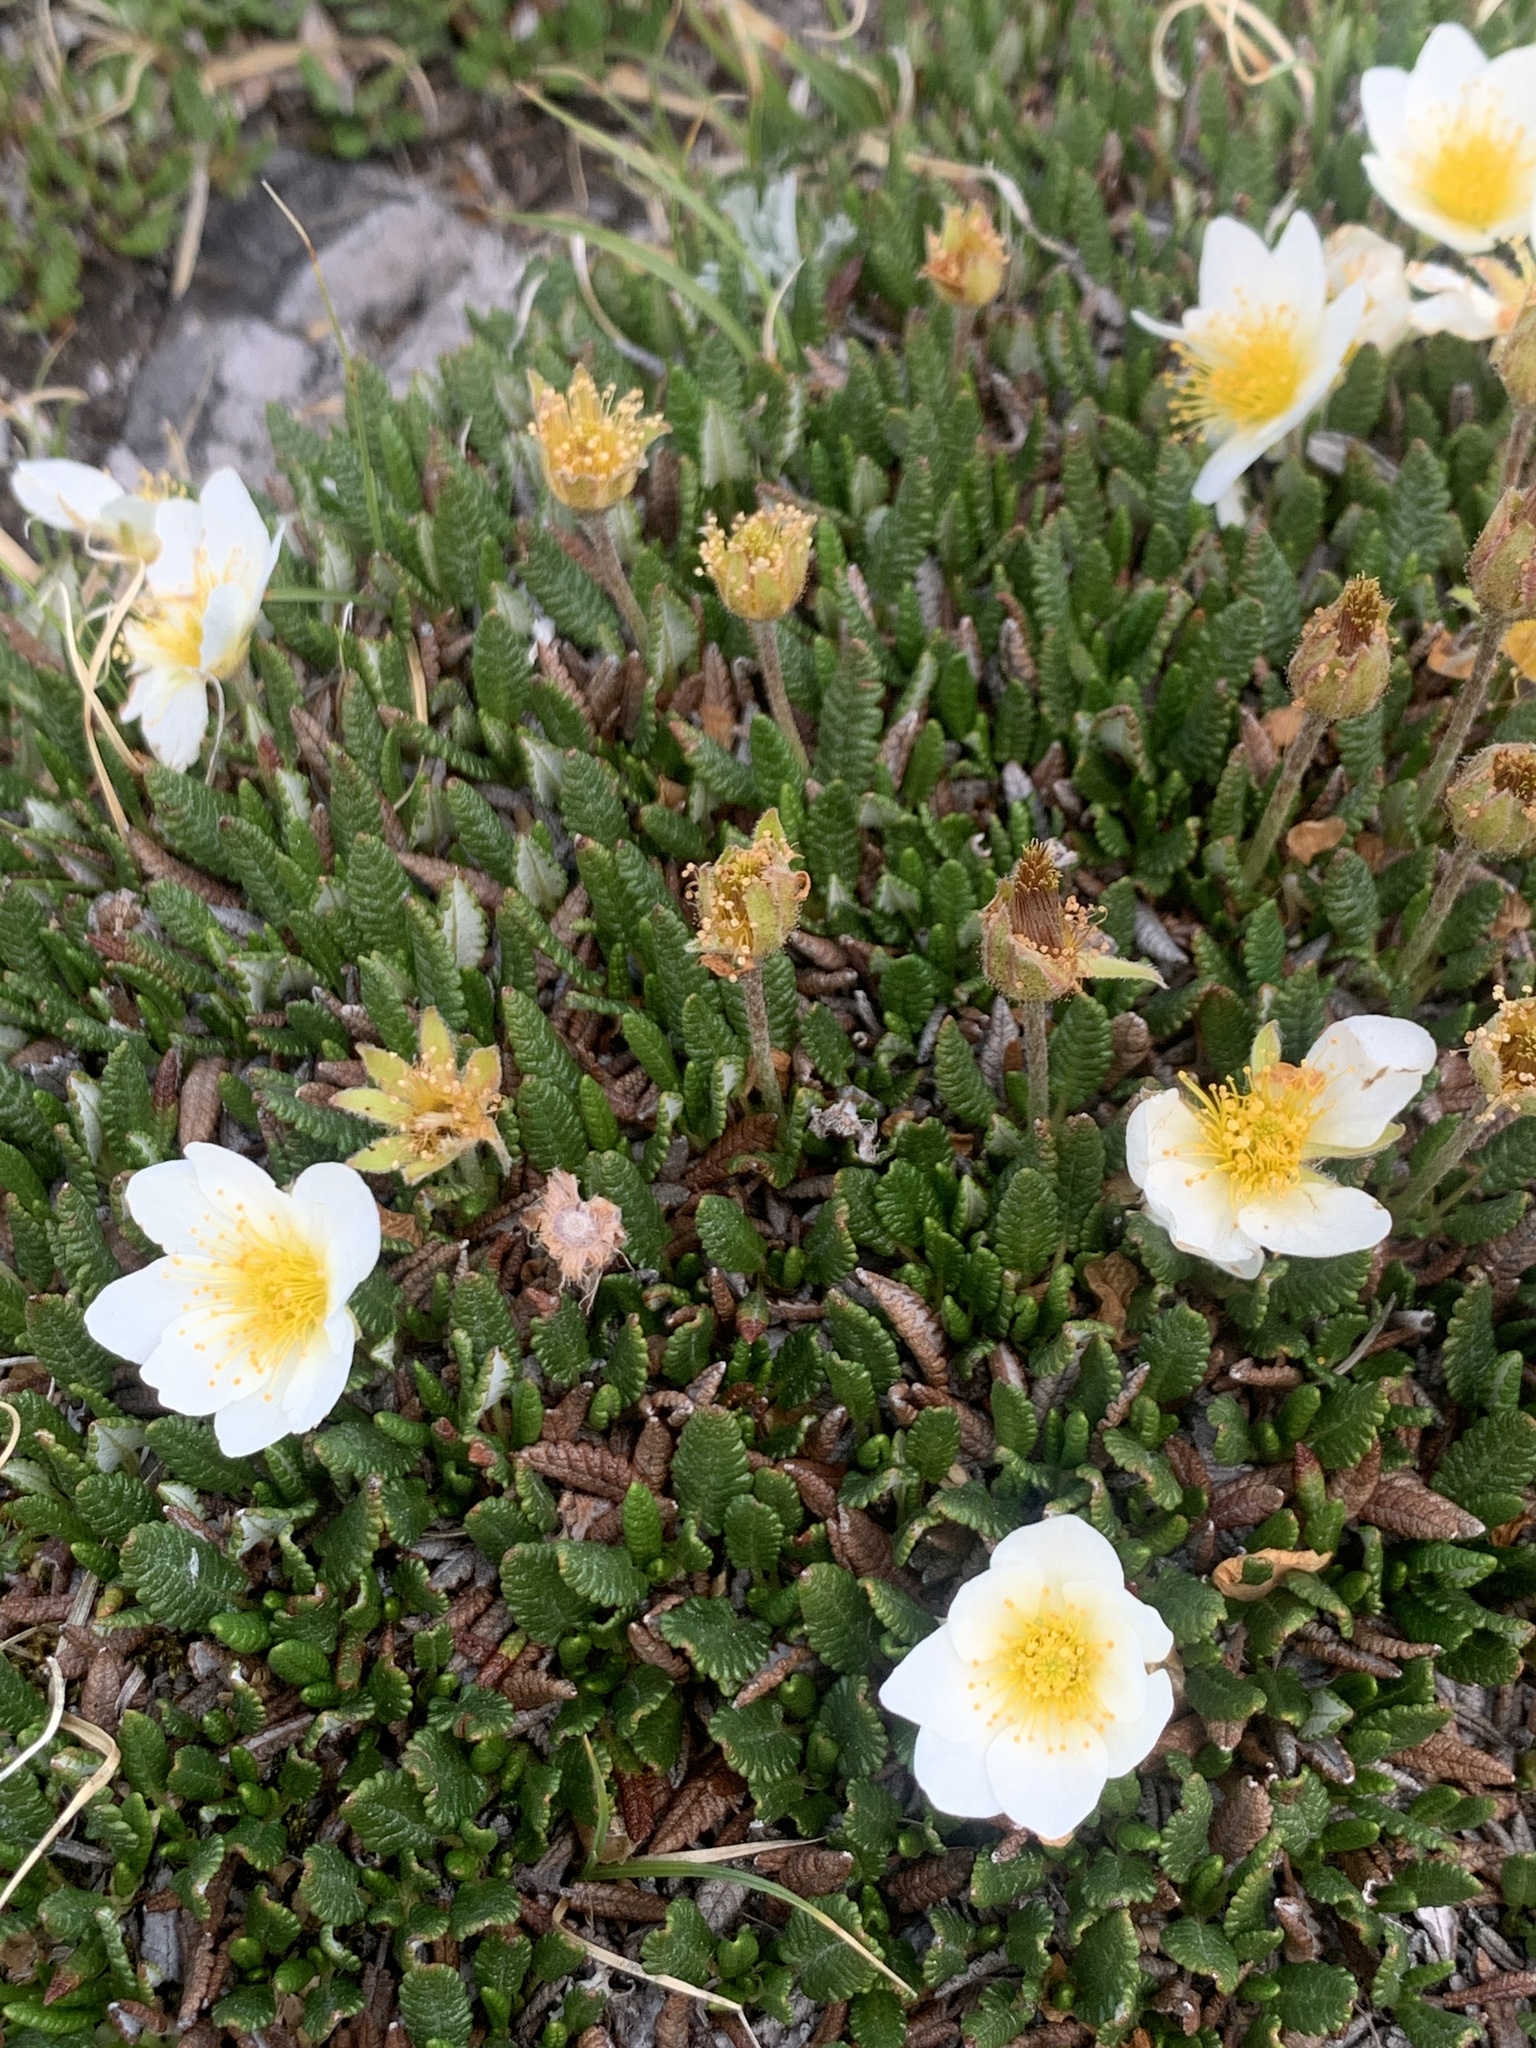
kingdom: Plantae
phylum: Tracheophyta
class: Magnoliopsida
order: Rosales
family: Rosaceae
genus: Dryas
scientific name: Dryas octopetala
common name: Eight-petal mountain-avens
